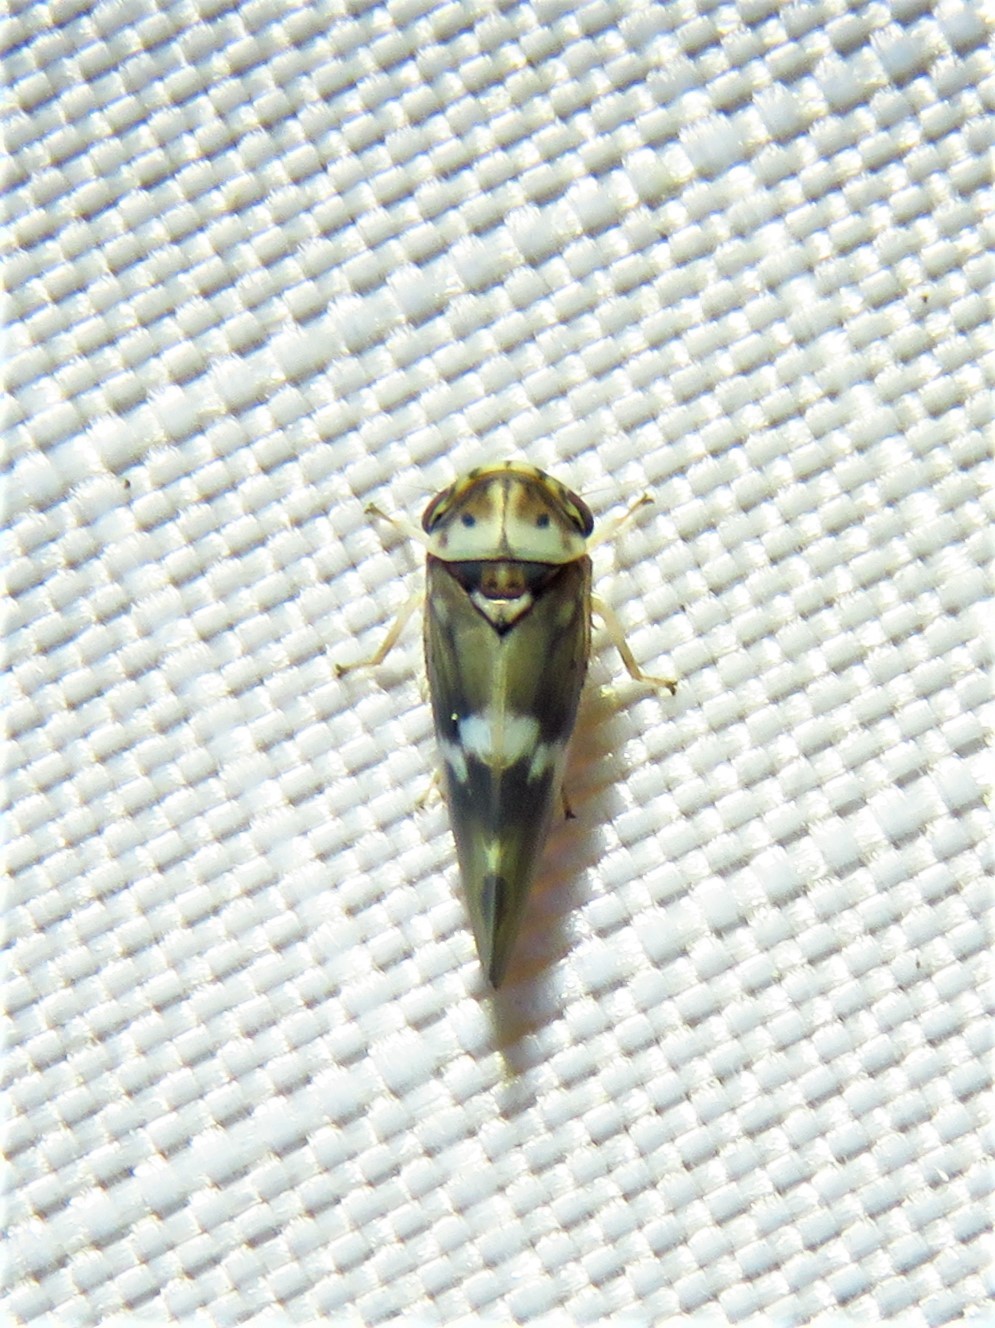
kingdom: Animalia
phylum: Arthropoda
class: Insecta
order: Hemiptera
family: Cicadellidae
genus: Agalliopsis
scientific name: Agalliopsis cervina
